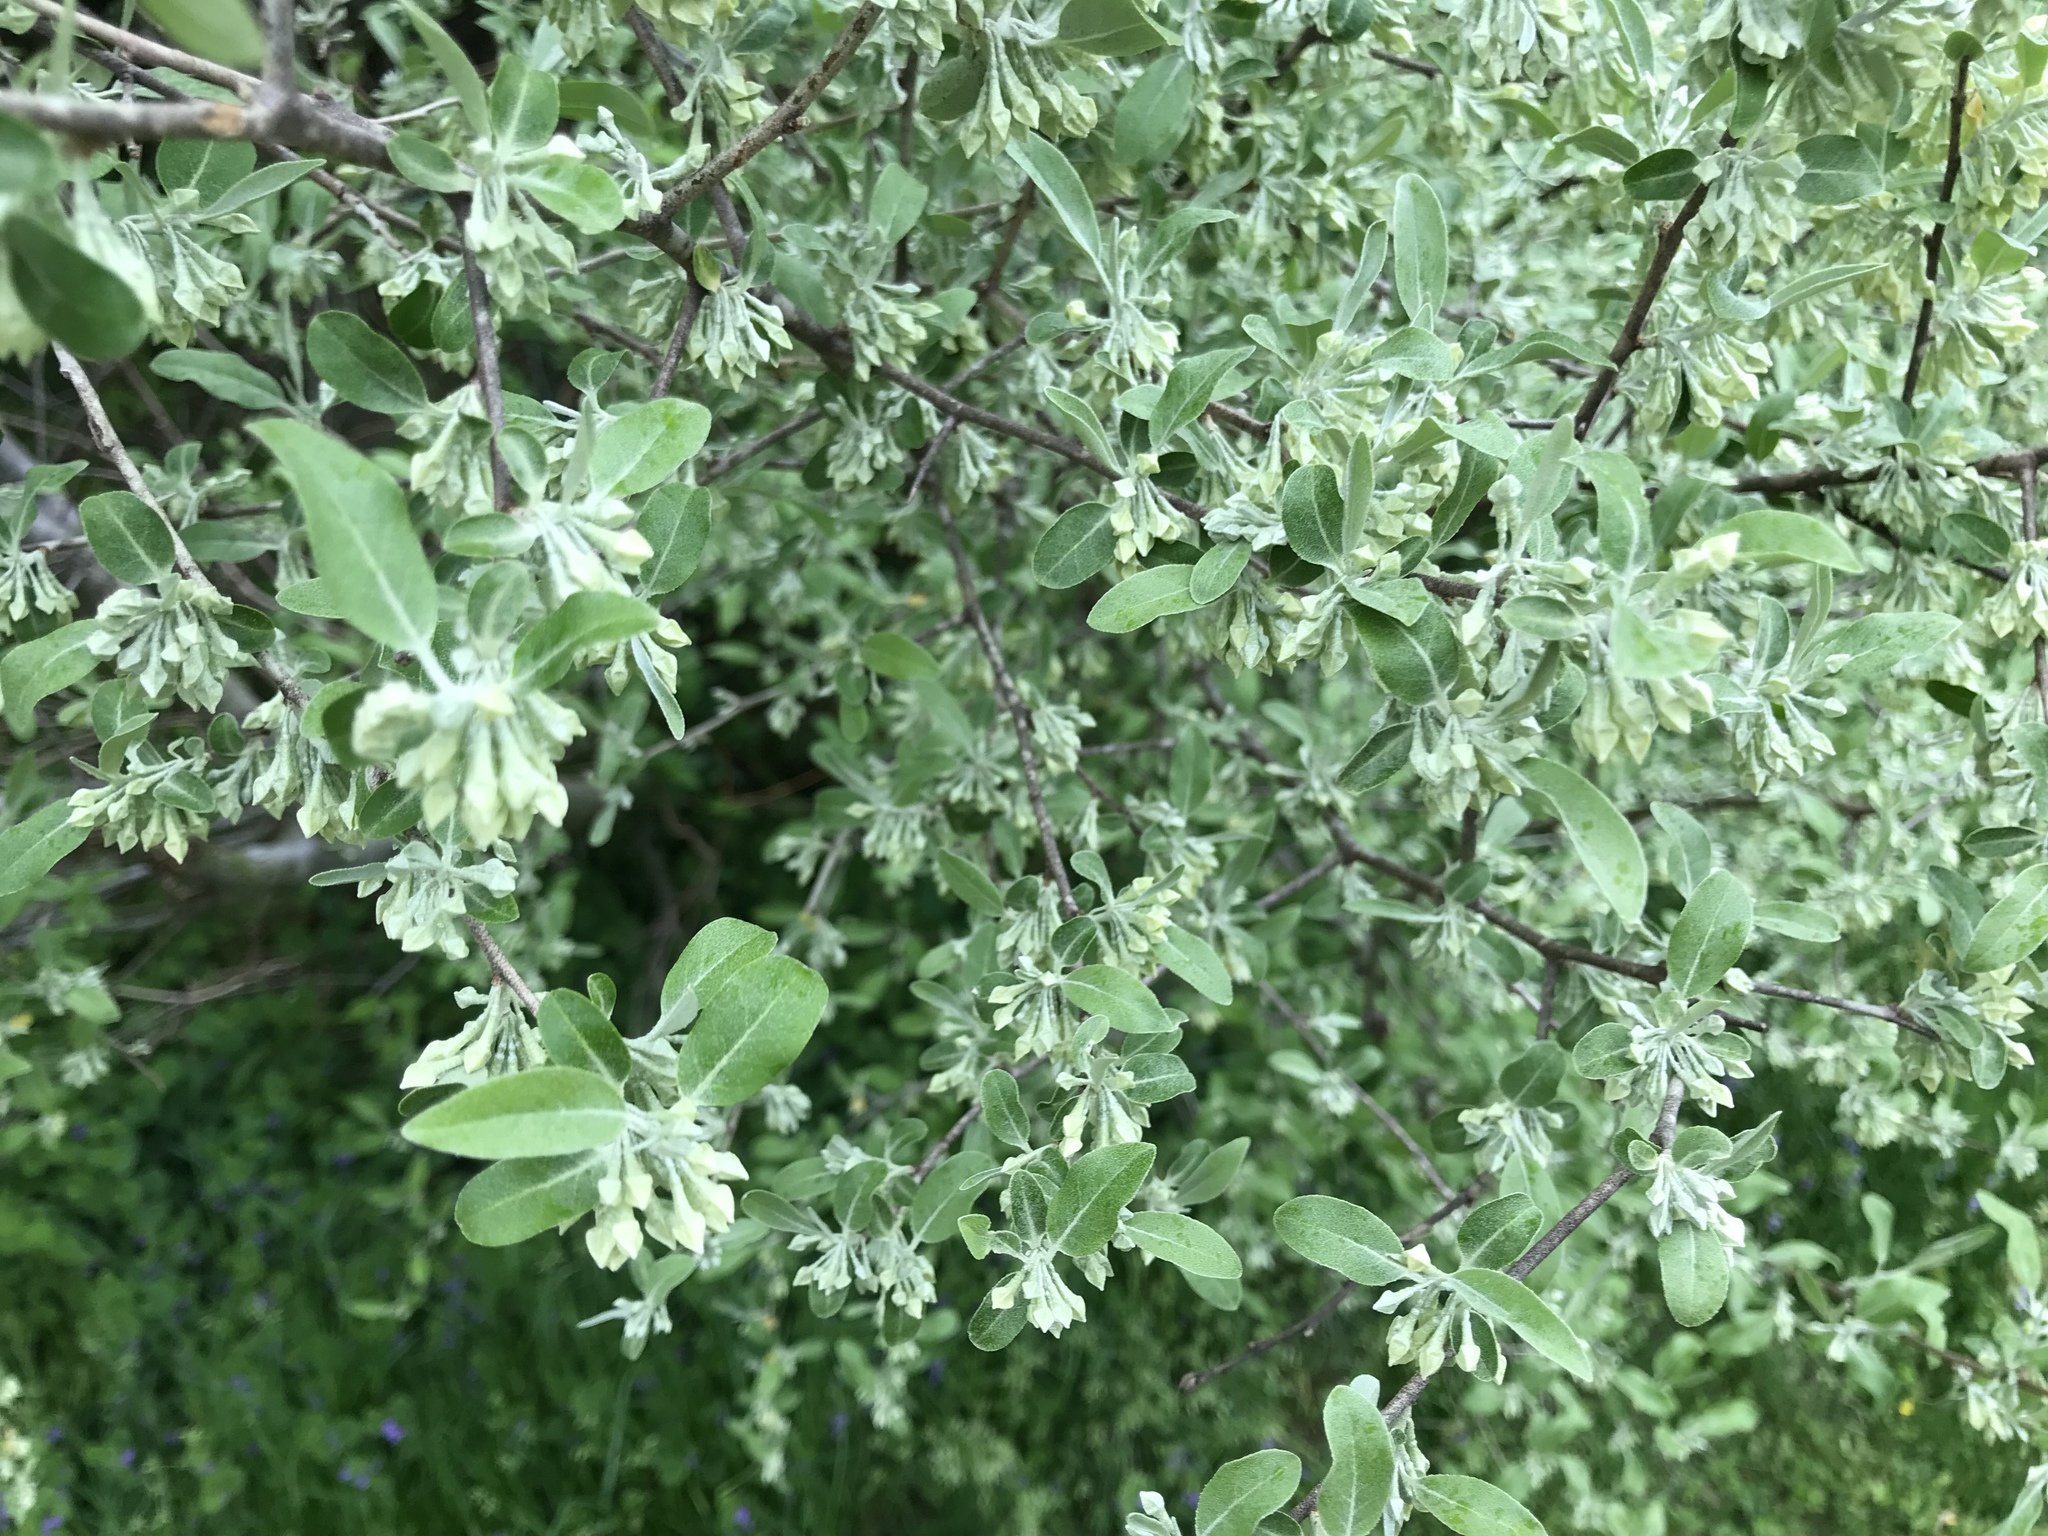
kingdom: Plantae
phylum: Tracheophyta
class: Magnoliopsida
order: Rosales
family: Elaeagnaceae
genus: Elaeagnus
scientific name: Elaeagnus umbellata
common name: Autumn olive
